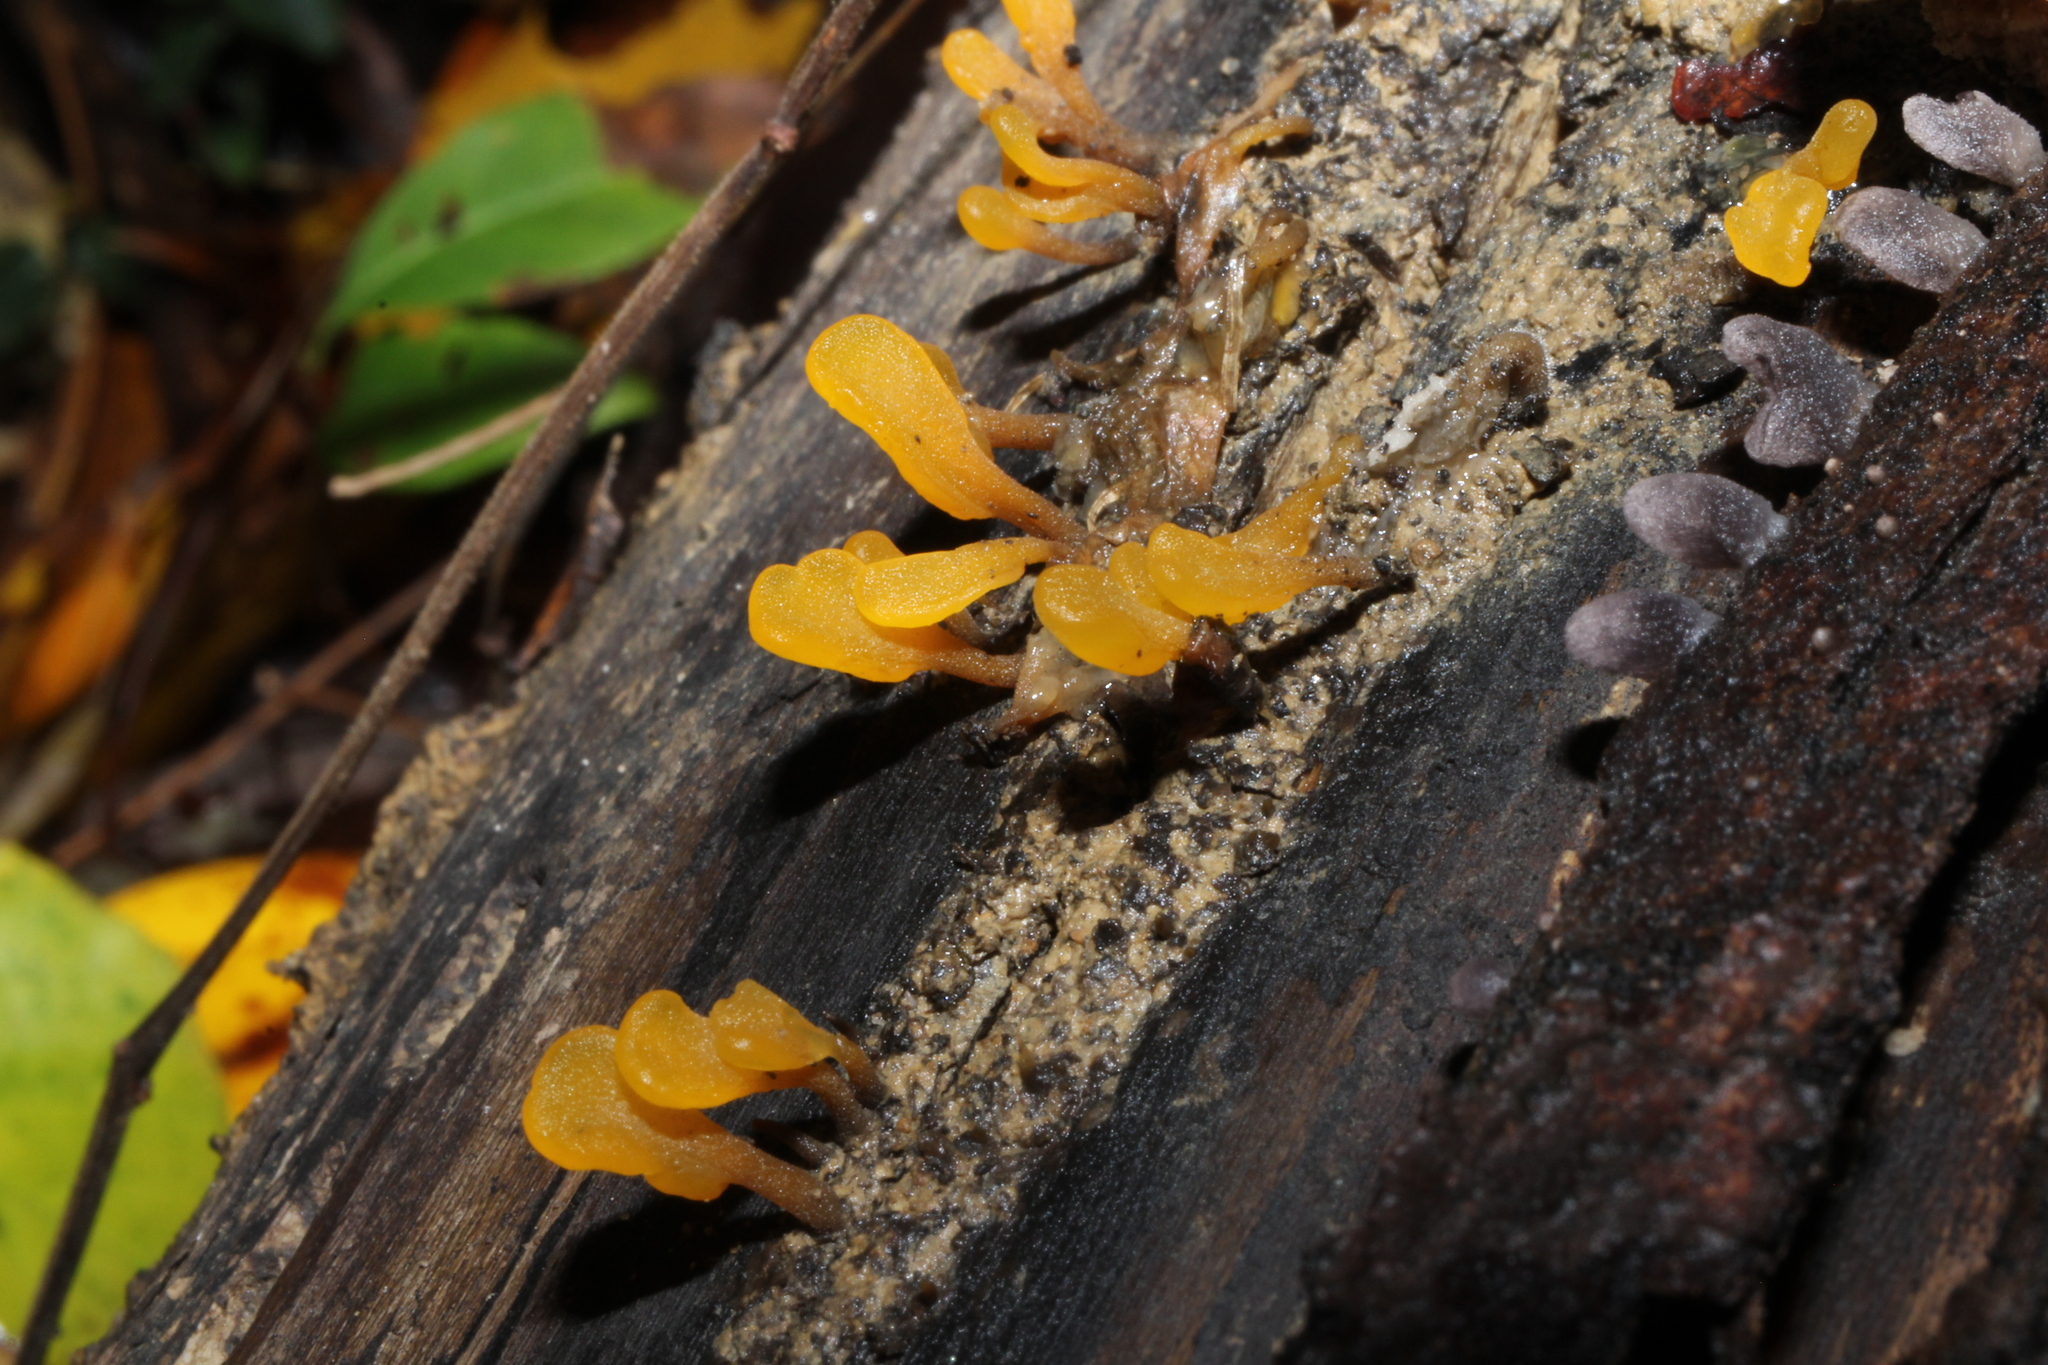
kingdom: Fungi
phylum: Basidiomycota
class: Dacrymycetes
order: Dacrymycetales
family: Dacrymycetaceae
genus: Dacrymyces
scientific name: Dacrymyces spathularius
